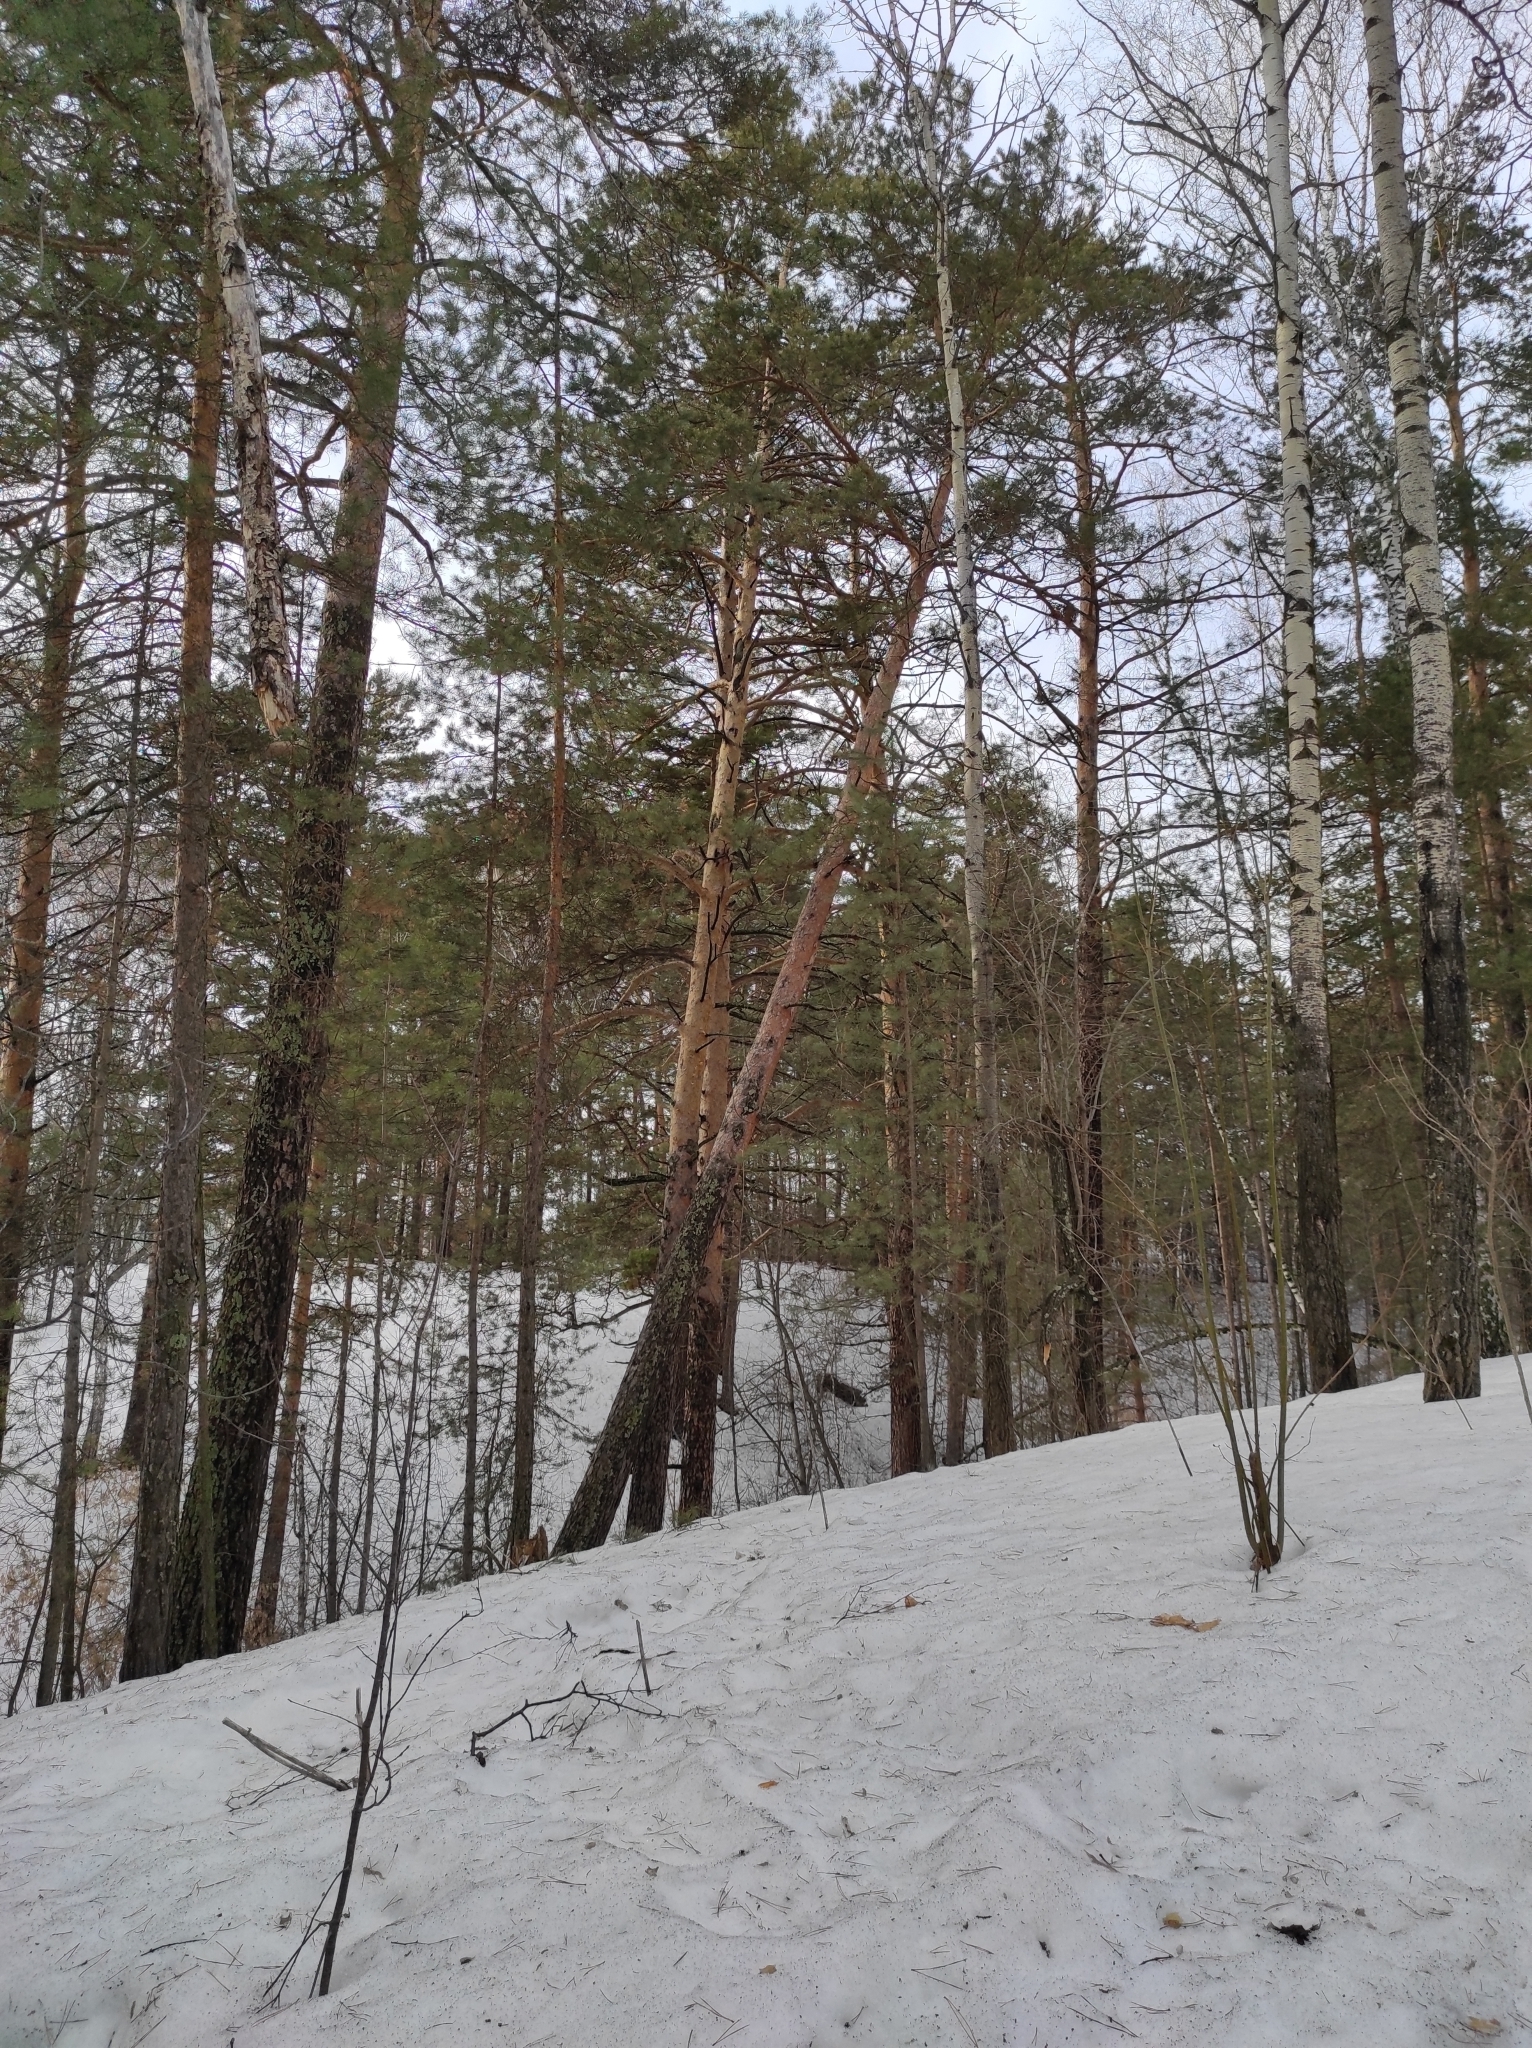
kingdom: Plantae
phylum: Tracheophyta
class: Pinopsida
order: Pinales
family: Pinaceae
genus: Pinus
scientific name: Pinus sylvestris
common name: Scots pine
